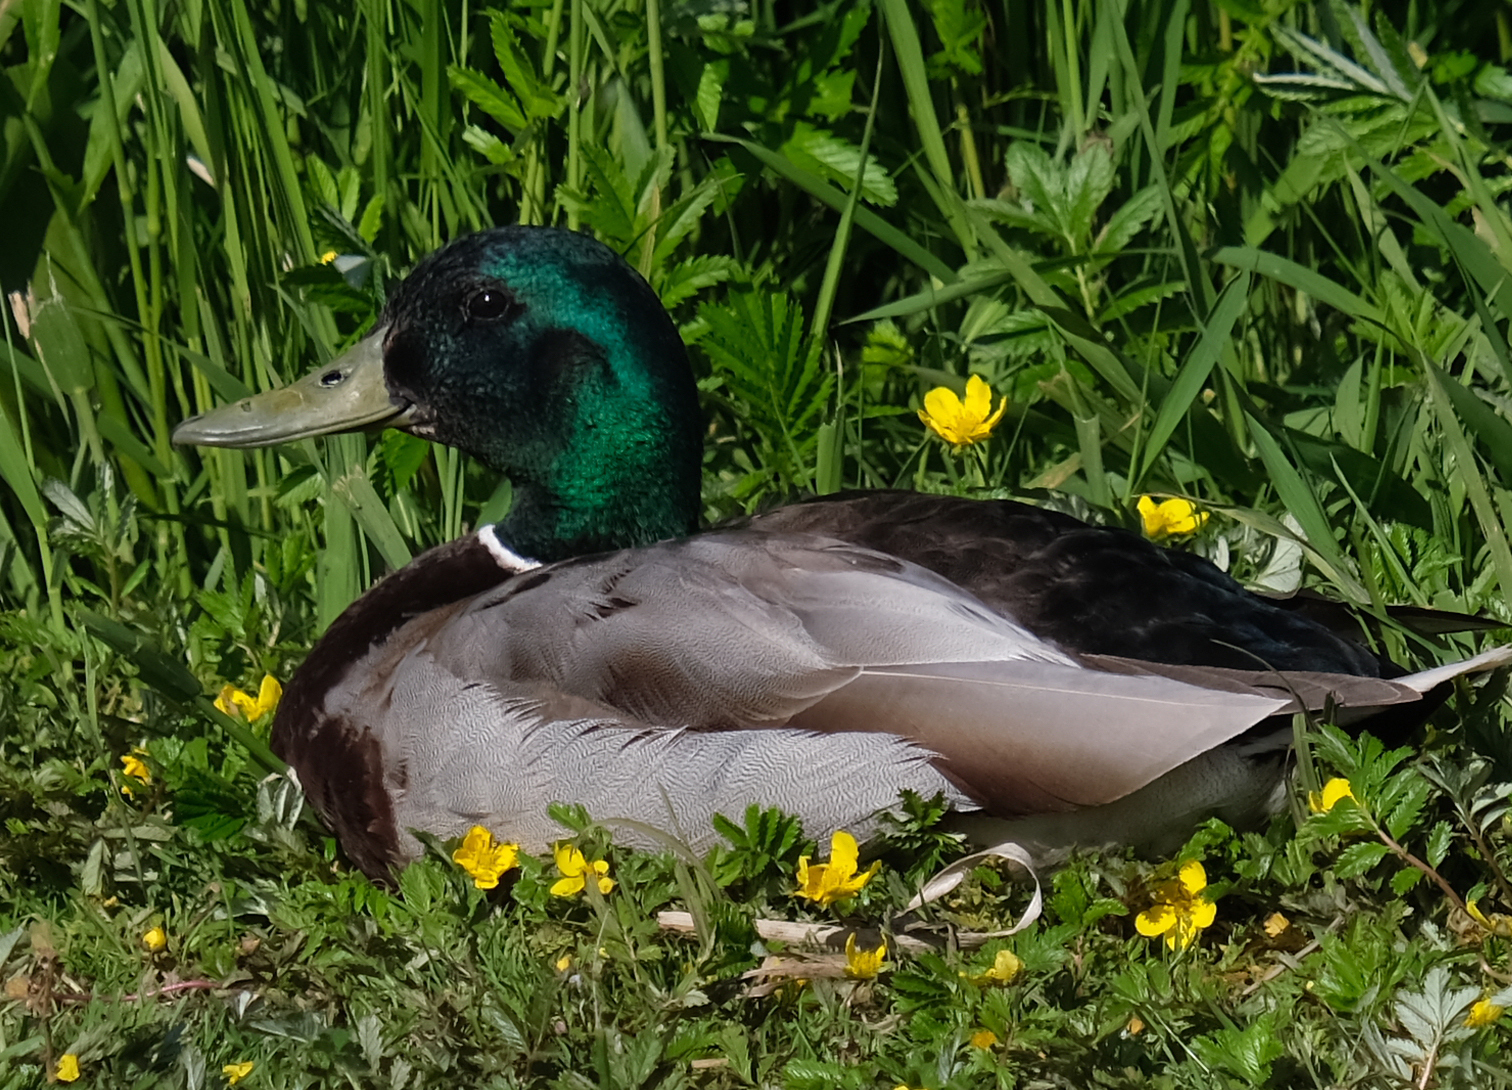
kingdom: Animalia
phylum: Chordata
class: Aves
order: Anseriformes
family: Anatidae
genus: Anas
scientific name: Anas platyrhynchos
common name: Mallard
